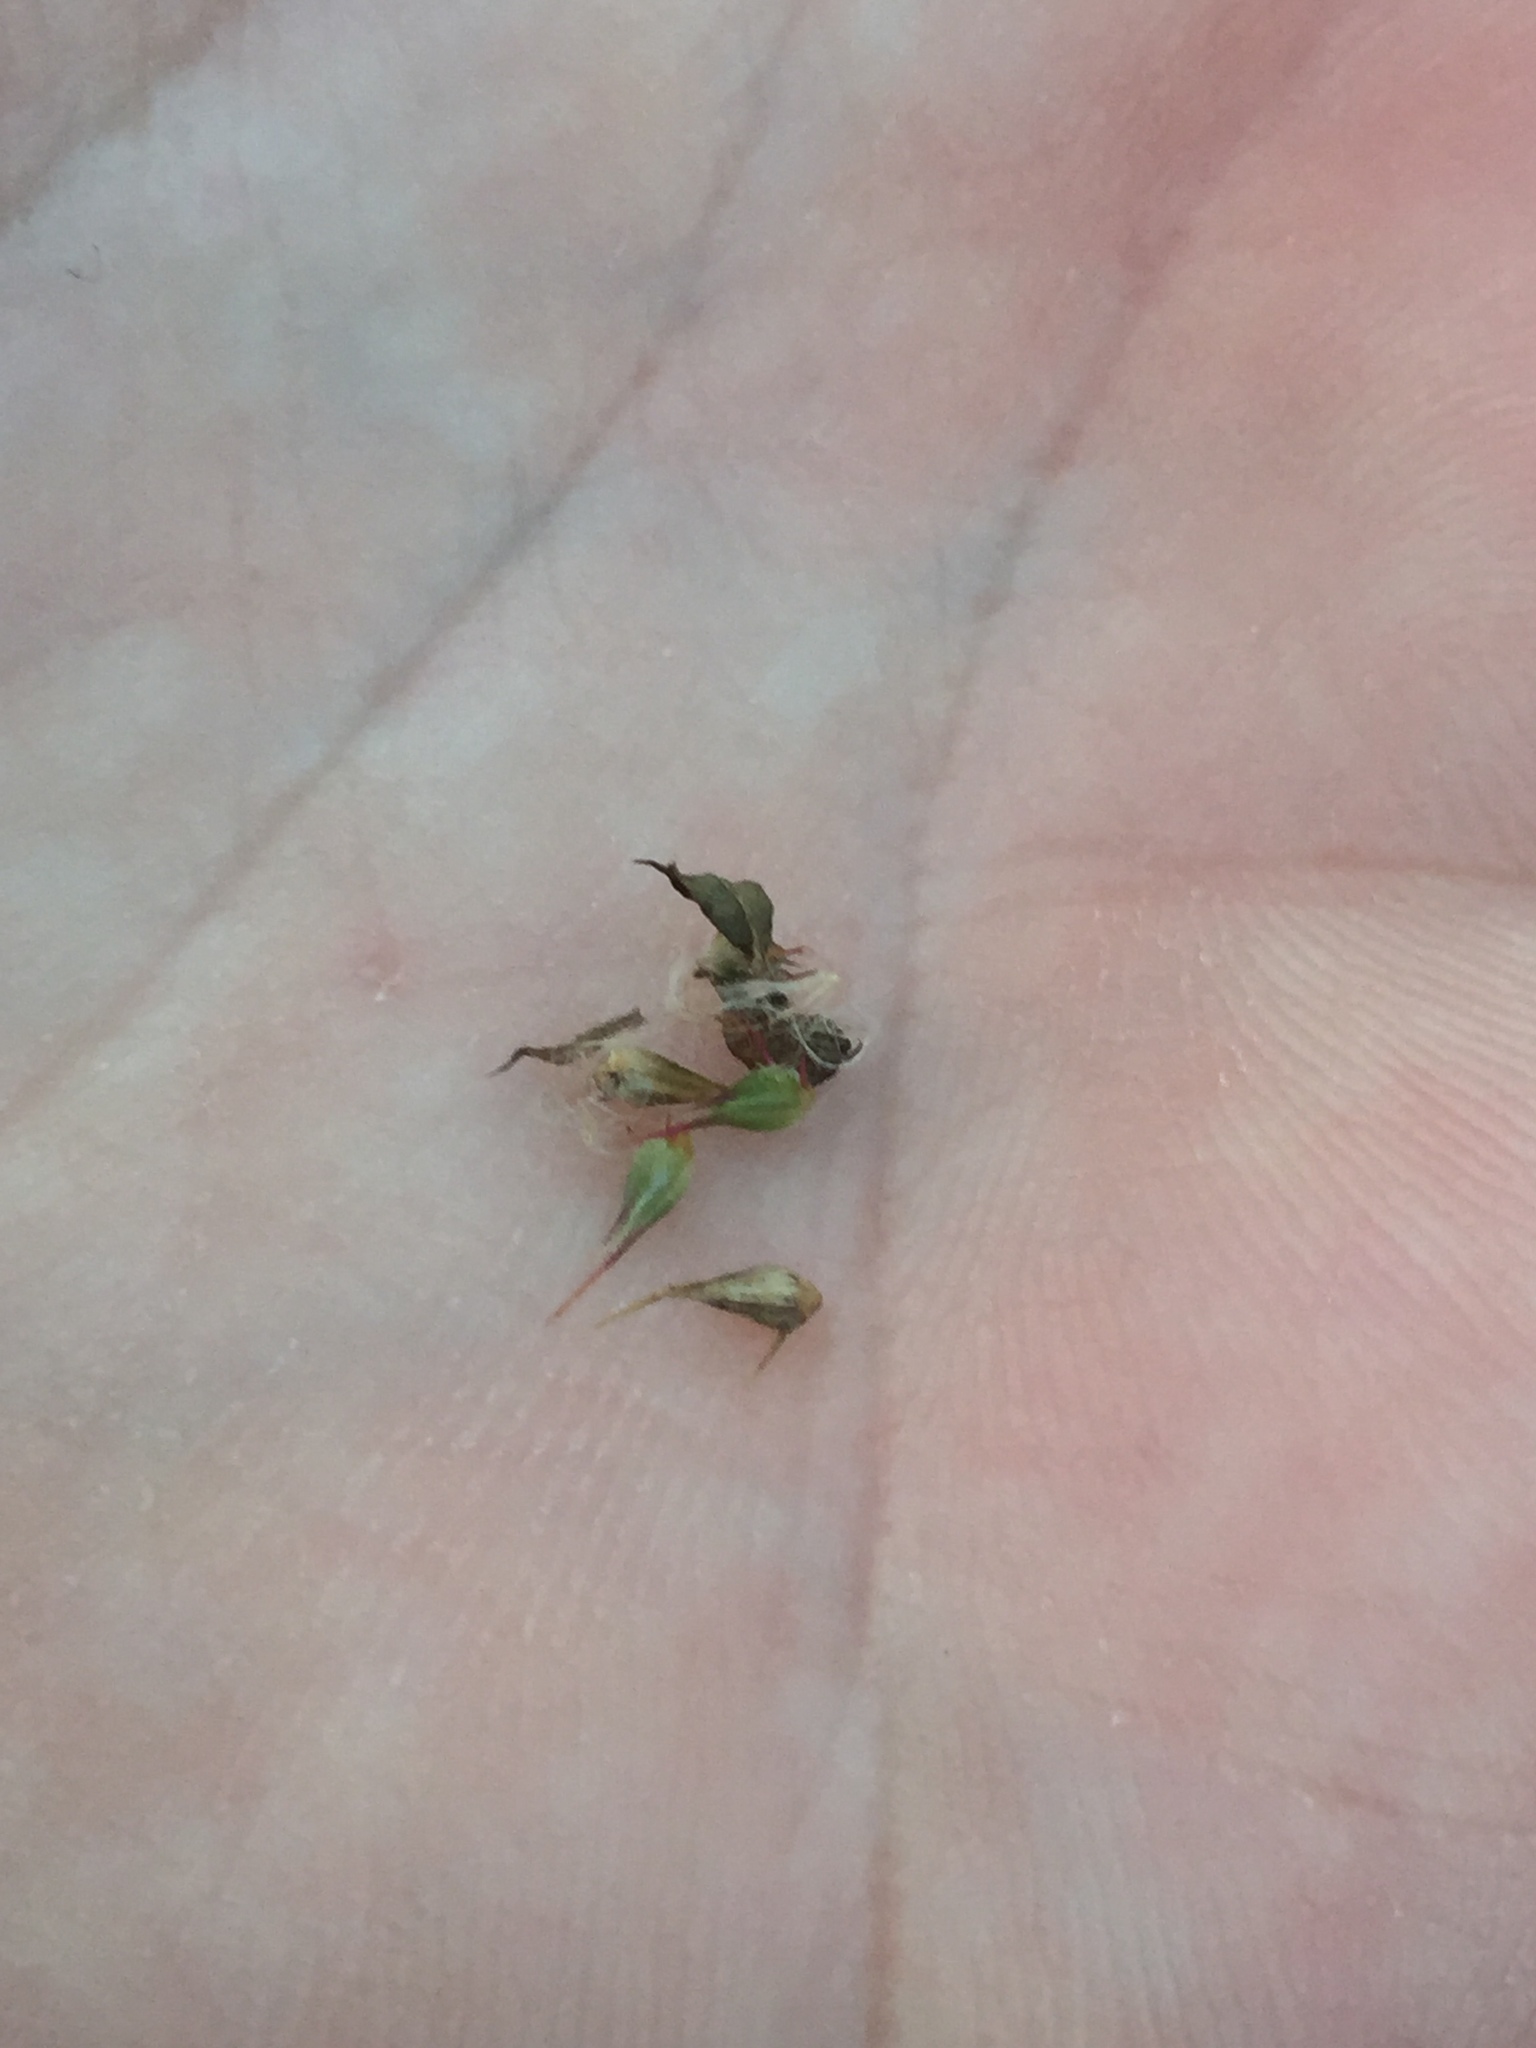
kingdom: Plantae
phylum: Tracheophyta
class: Magnoliopsida
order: Caryophyllales
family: Amaranthaceae
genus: Nyssanthes
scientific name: Nyssanthes diffusa
